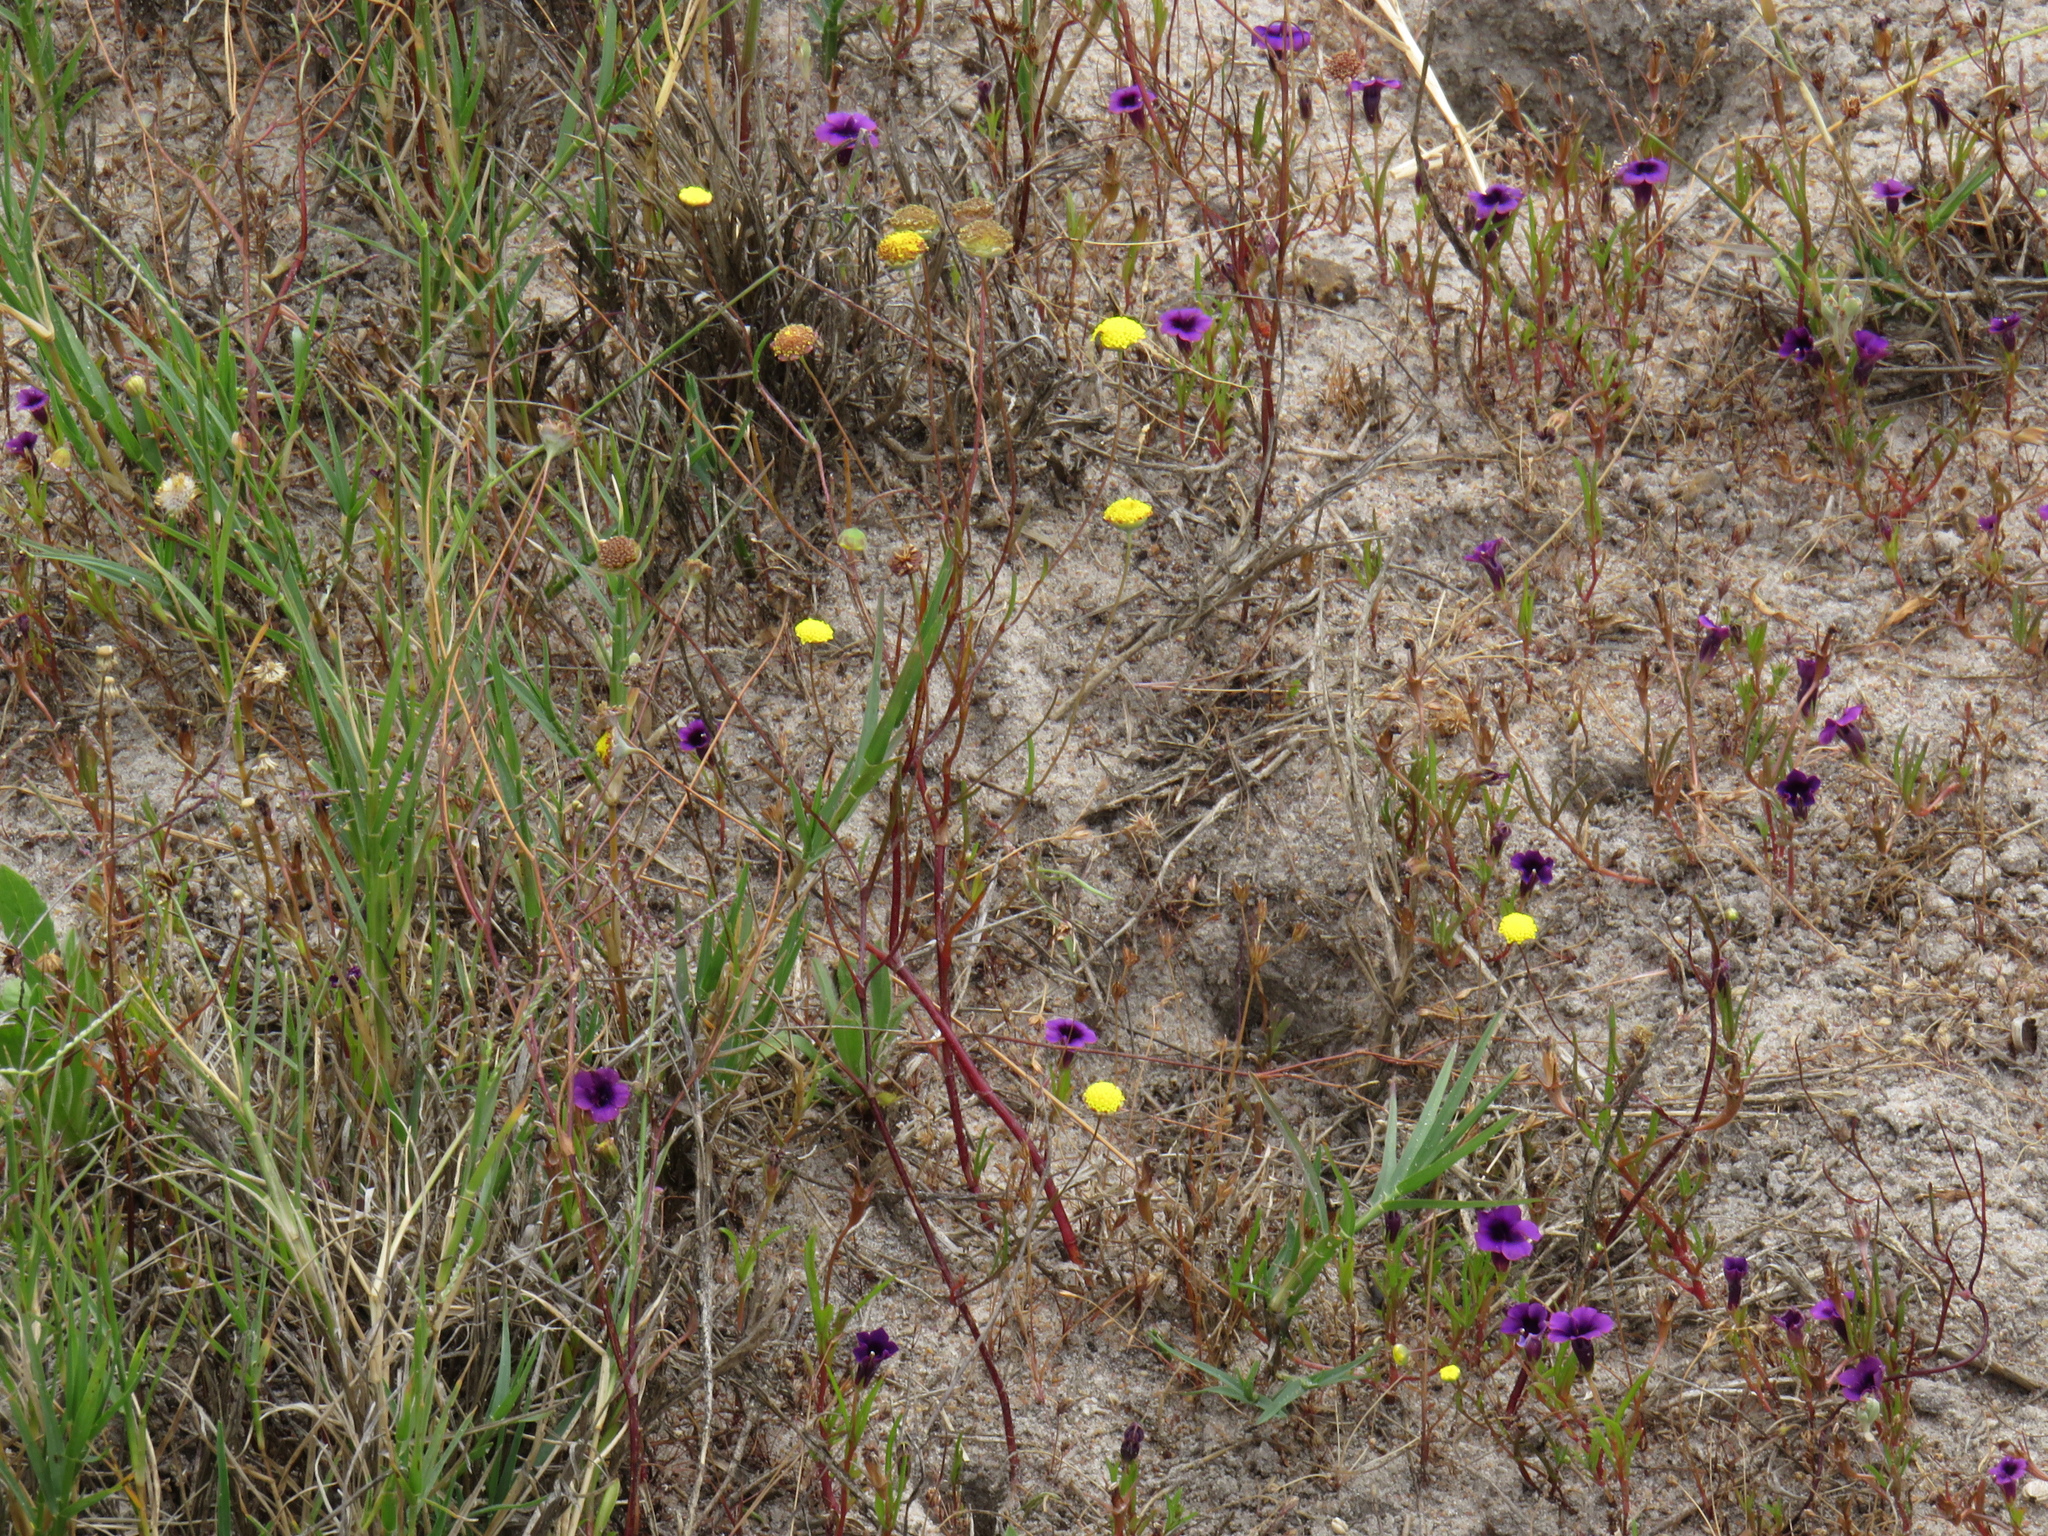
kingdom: Plantae
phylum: Tracheophyta
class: Magnoliopsida
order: Asterales
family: Campanulaceae
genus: Monopsis
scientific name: Monopsis debilis
